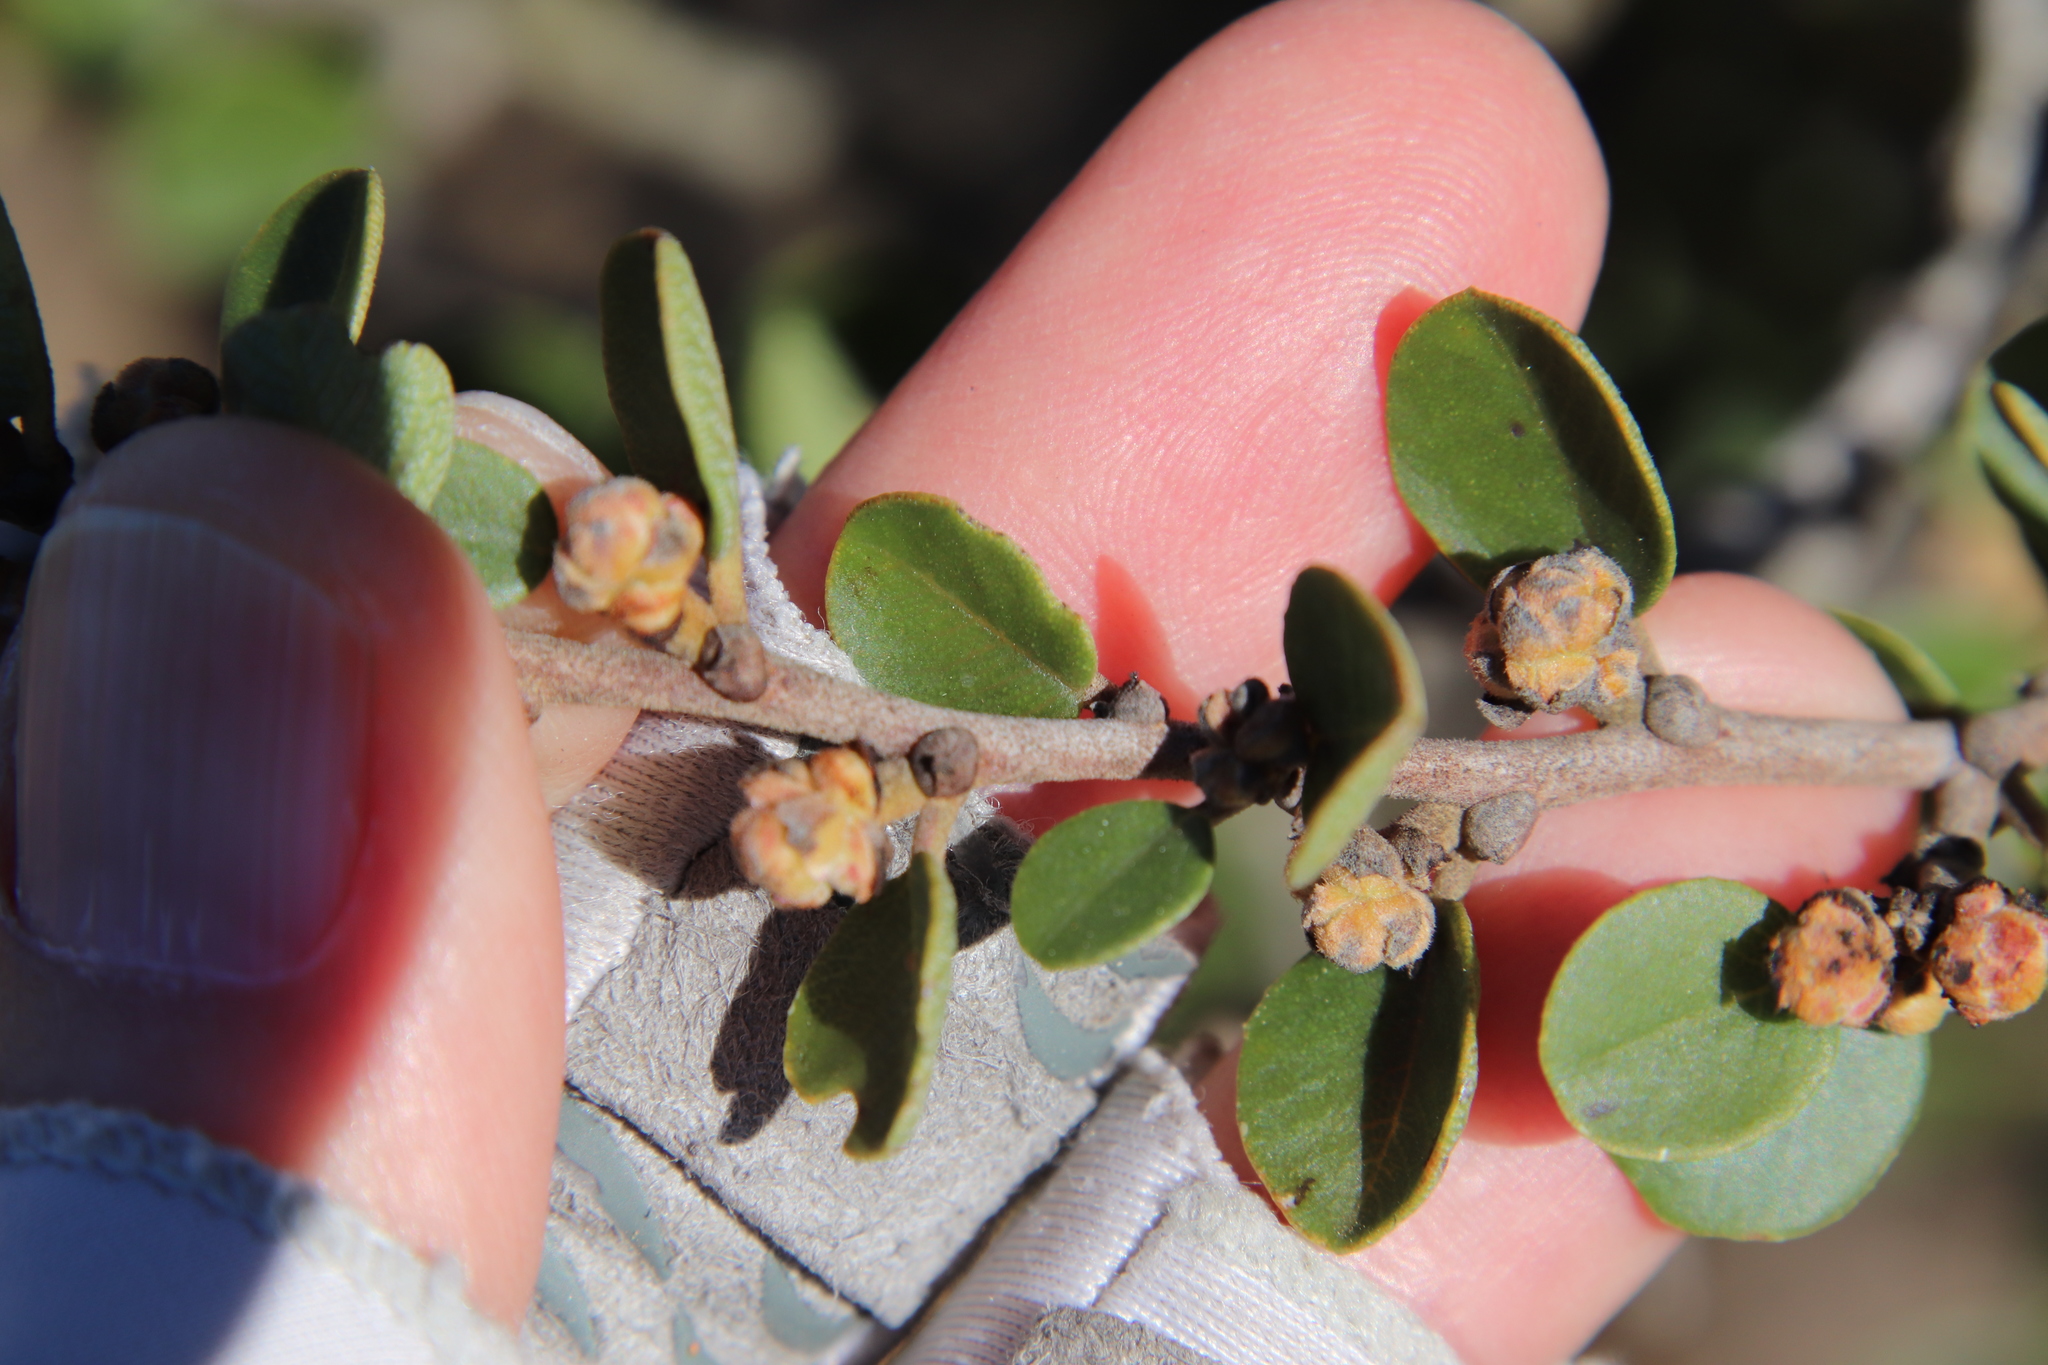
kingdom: Plantae
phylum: Tracheophyta
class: Magnoliopsida
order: Rosales
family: Rhamnaceae
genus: Ceanothus
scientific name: Ceanothus verrucosus
